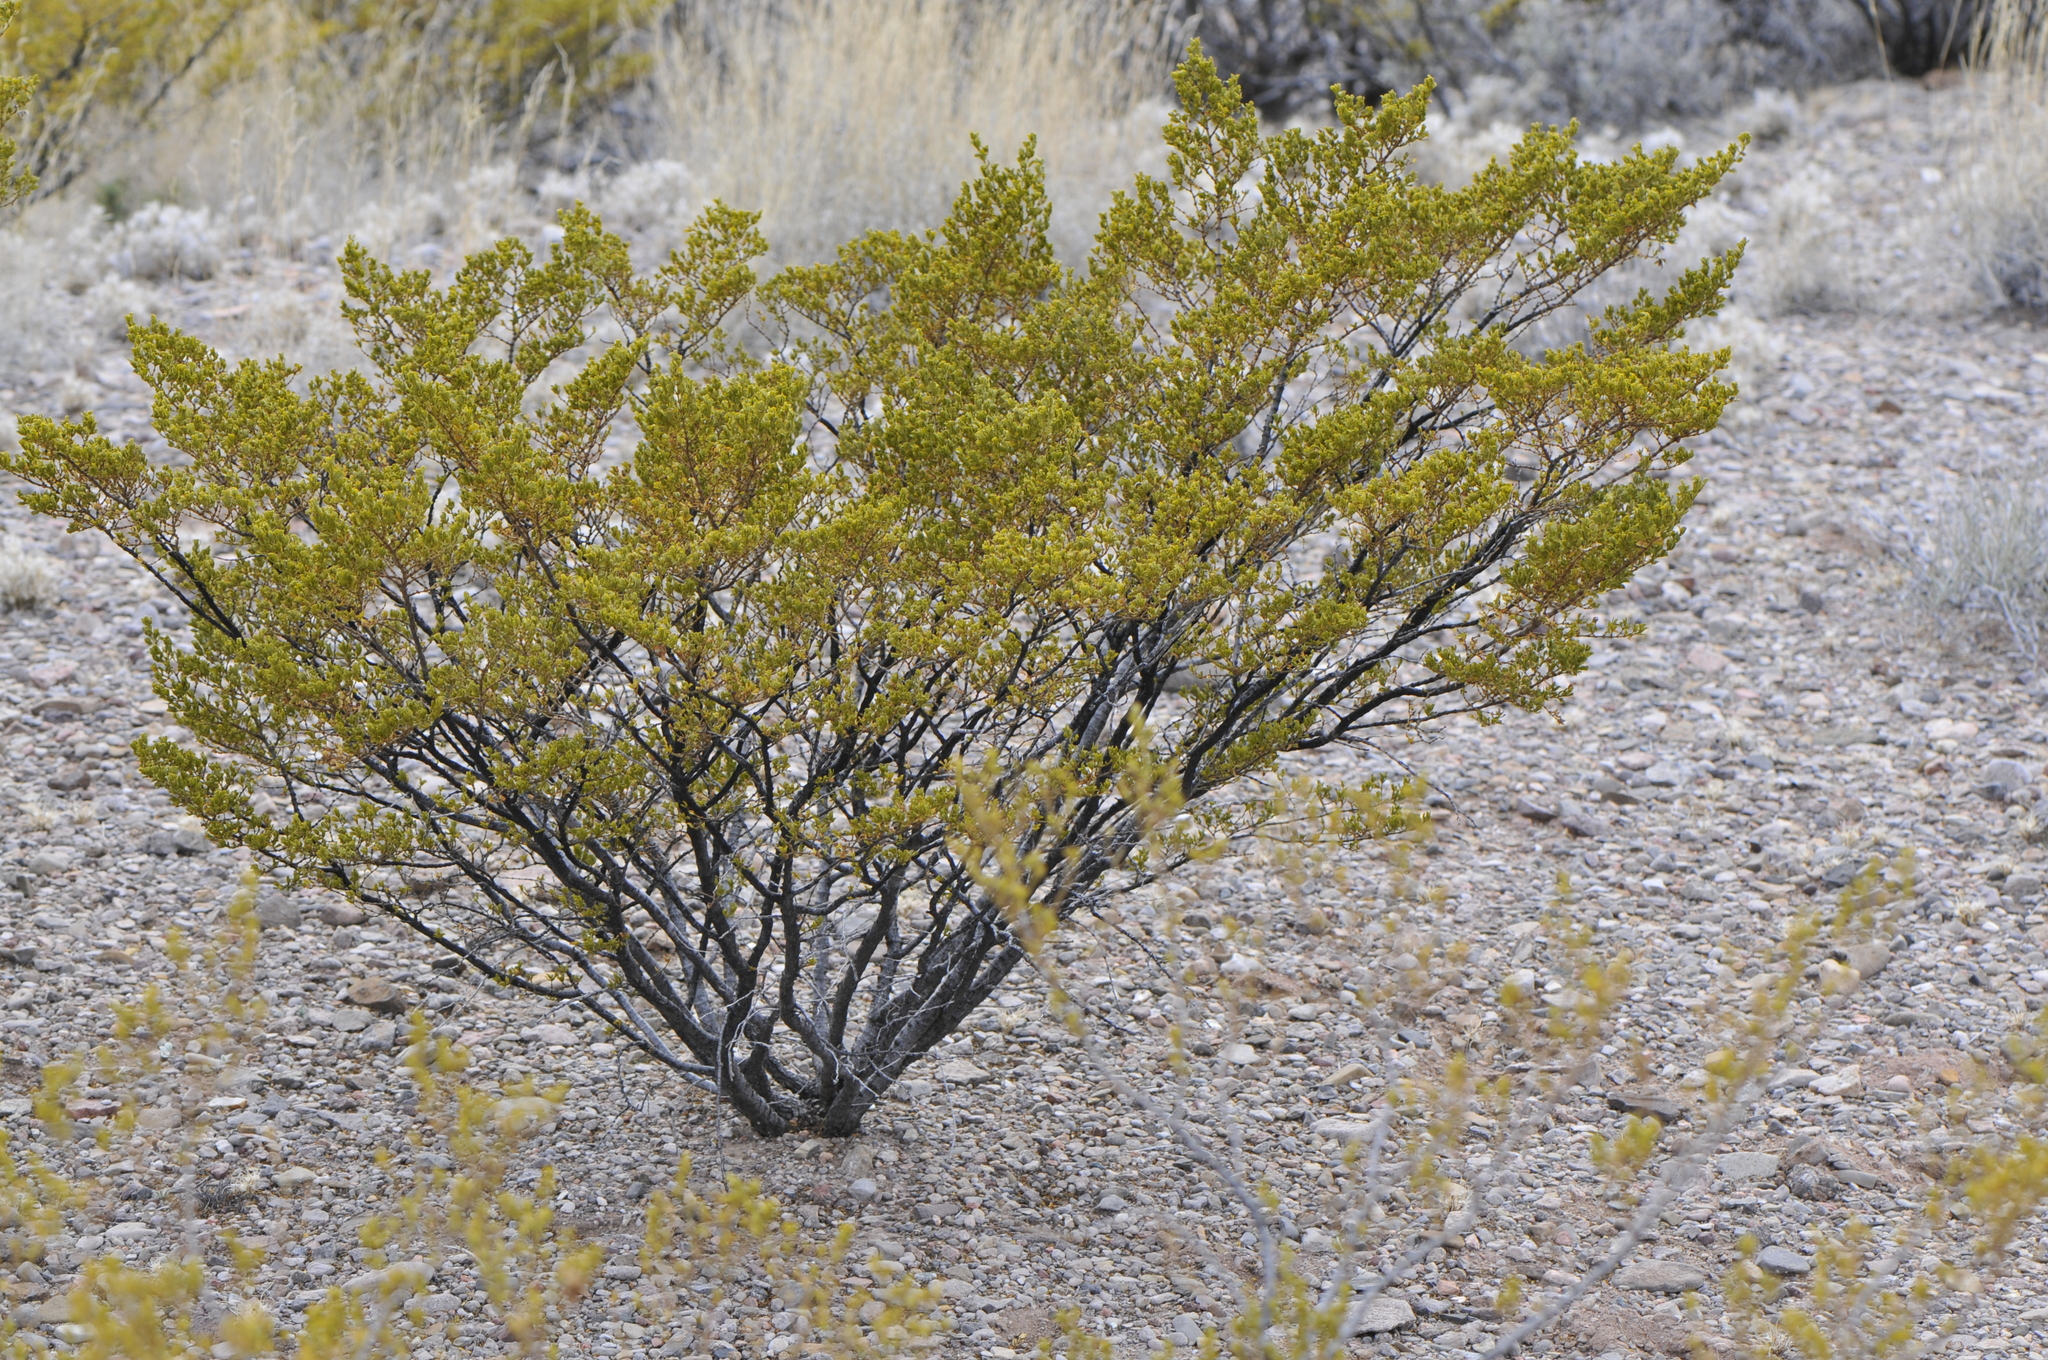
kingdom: Plantae
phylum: Tracheophyta
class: Magnoliopsida
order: Zygophyllales
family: Zygophyllaceae
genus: Larrea
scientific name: Larrea tridentata
